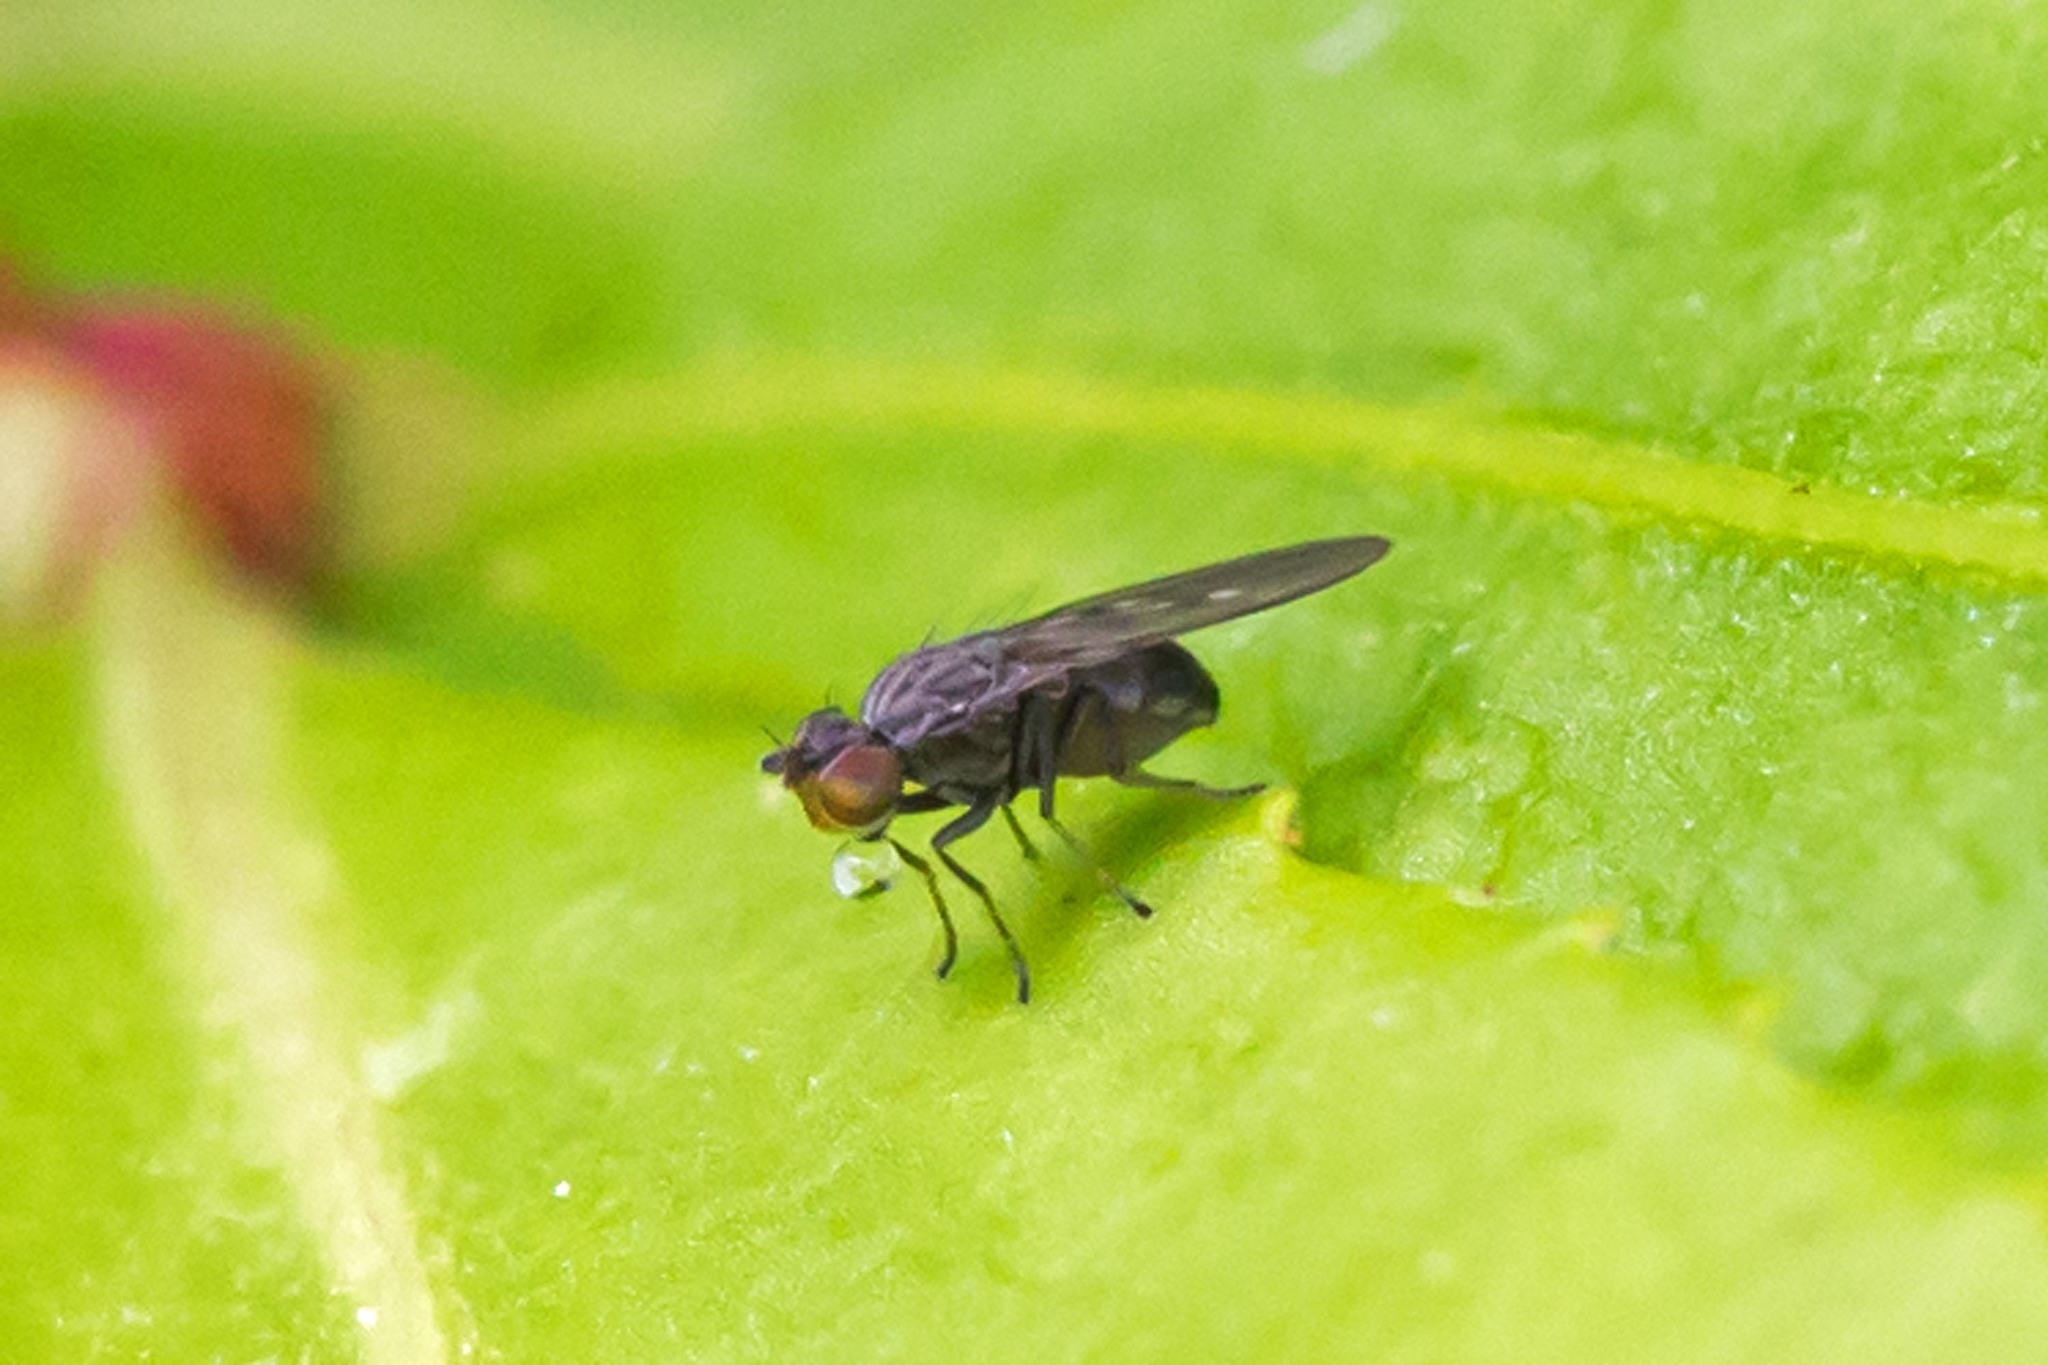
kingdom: Animalia
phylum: Arthropoda
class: Insecta
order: Diptera
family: Ephydridae
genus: Philygria
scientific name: Philygria debilis
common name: Brine fly
